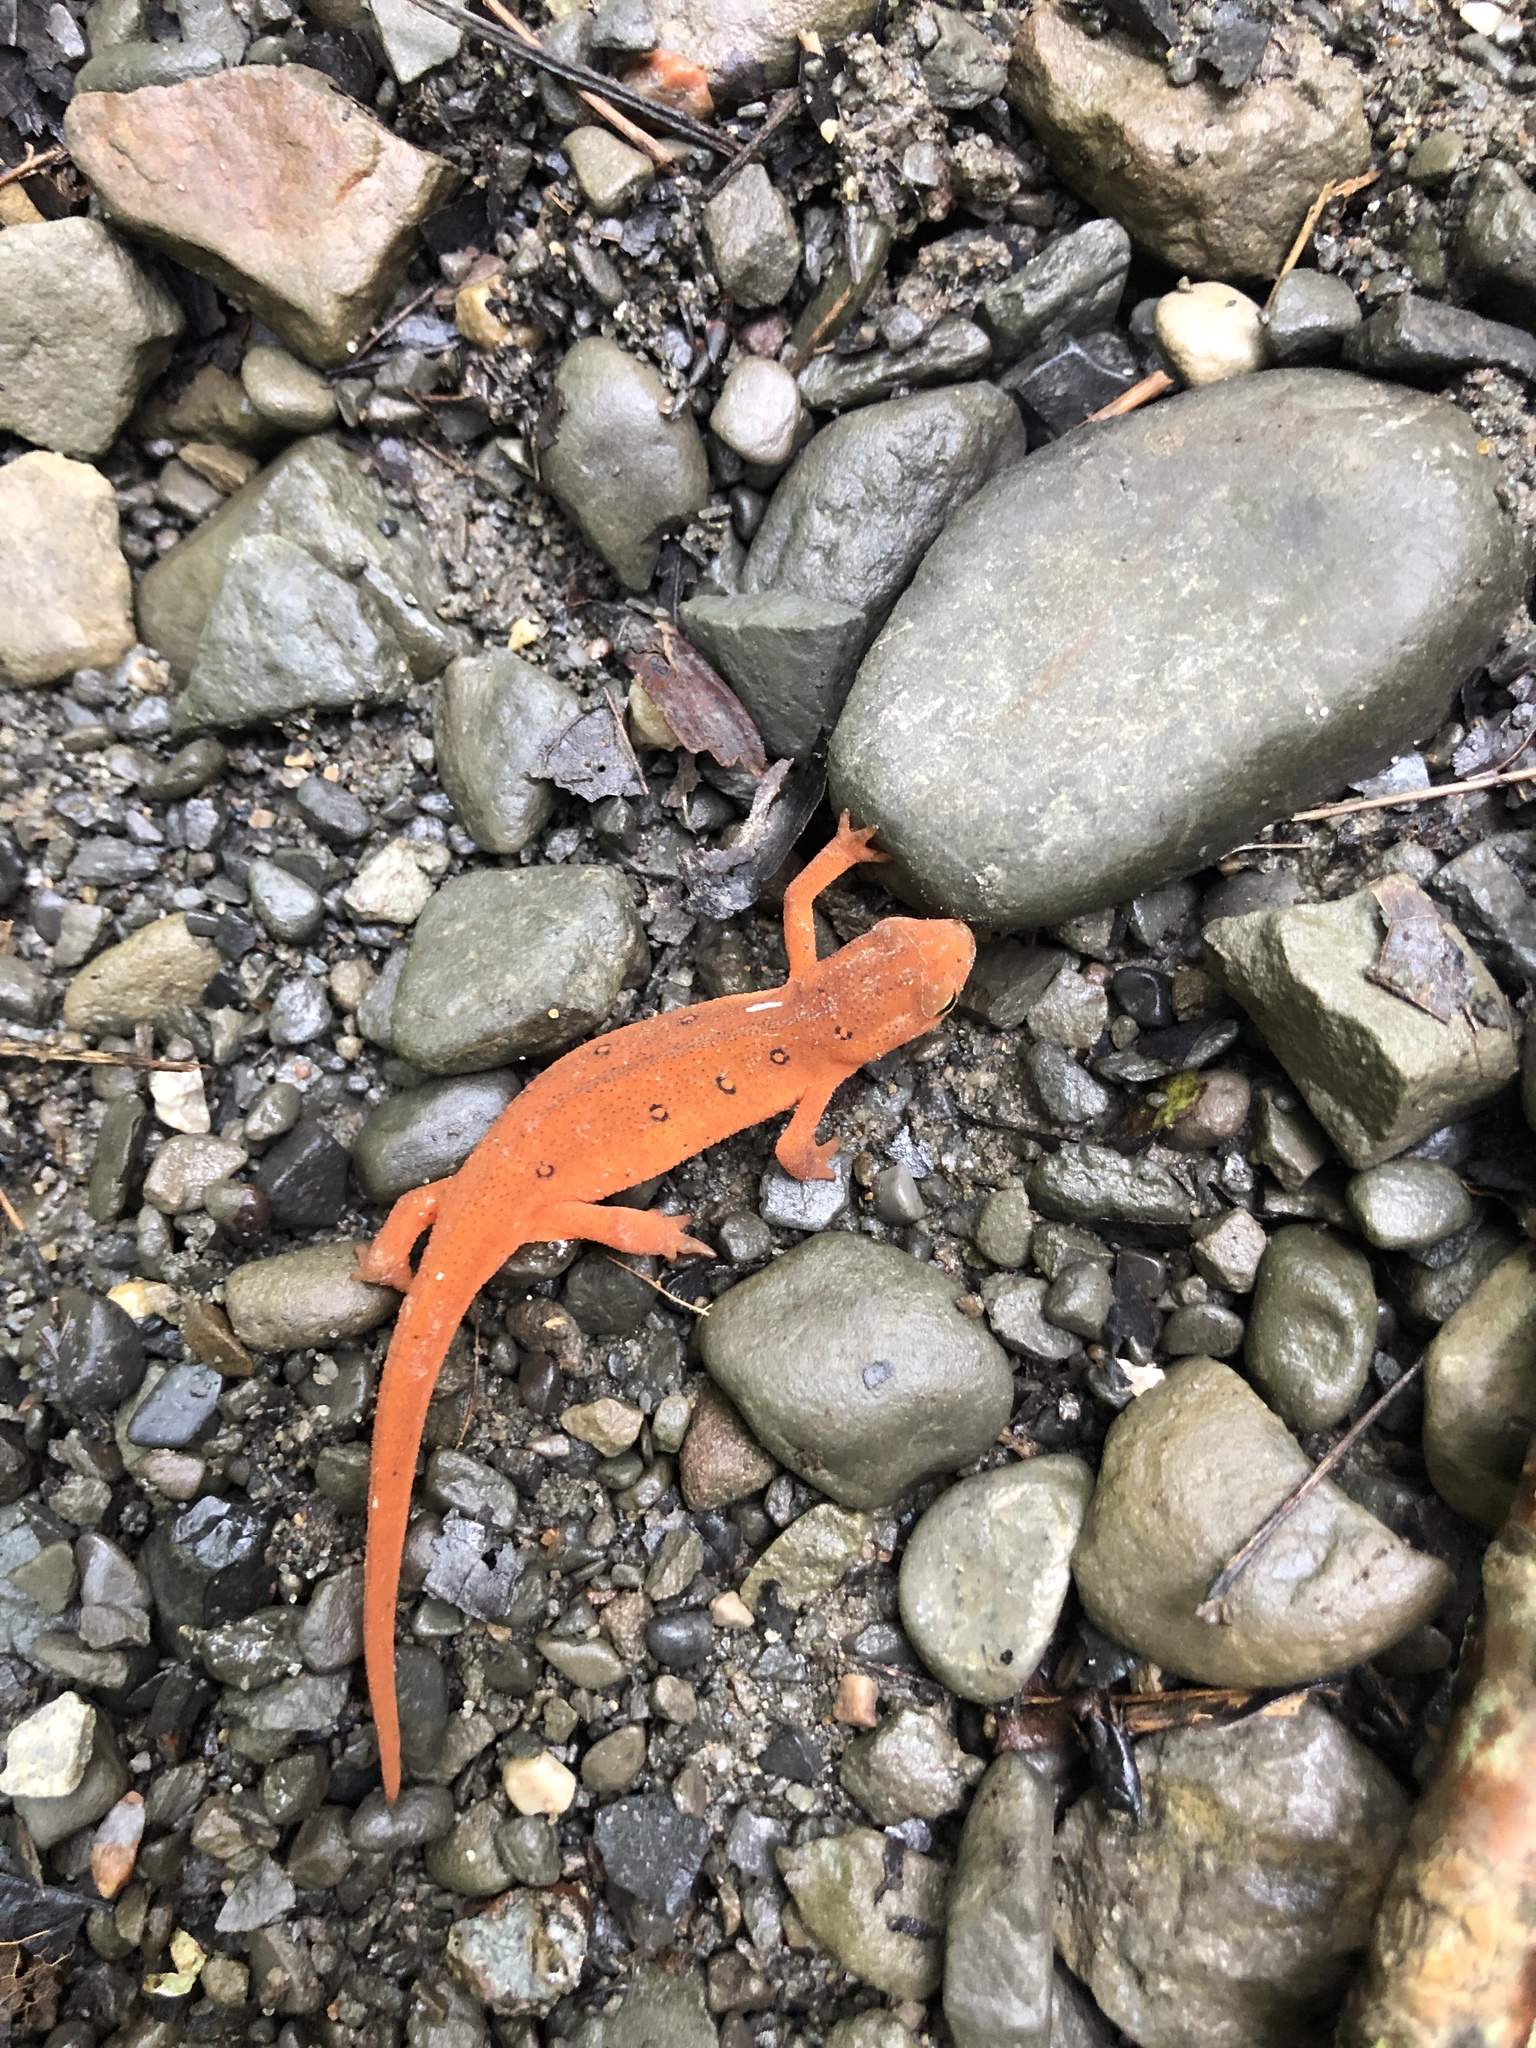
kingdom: Animalia
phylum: Chordata
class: Amphibia
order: Caudata
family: Salamandridae
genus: Notophthalmus
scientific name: Notophthalmus viridescens
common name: Eastern newt
